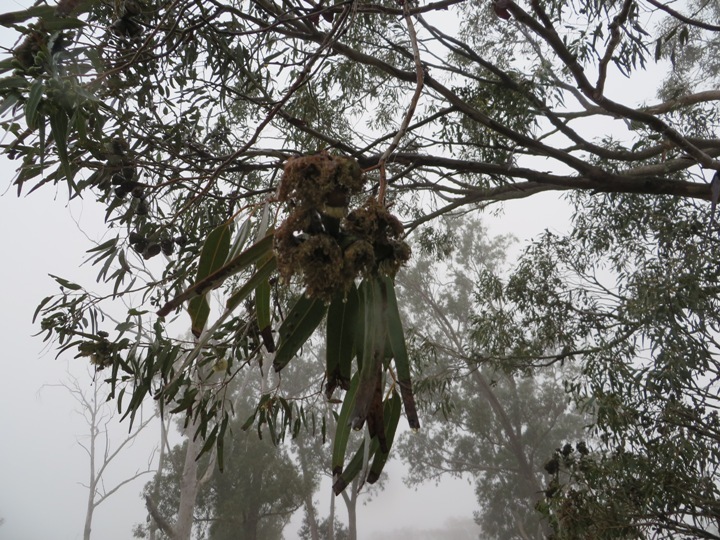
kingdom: Plantae
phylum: Tracheophyta
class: Magnoliopsida
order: Myrtales
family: Myrtaceae
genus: Eucalyptus
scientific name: Eucalyptus grandis
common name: Grand eucalyptus
